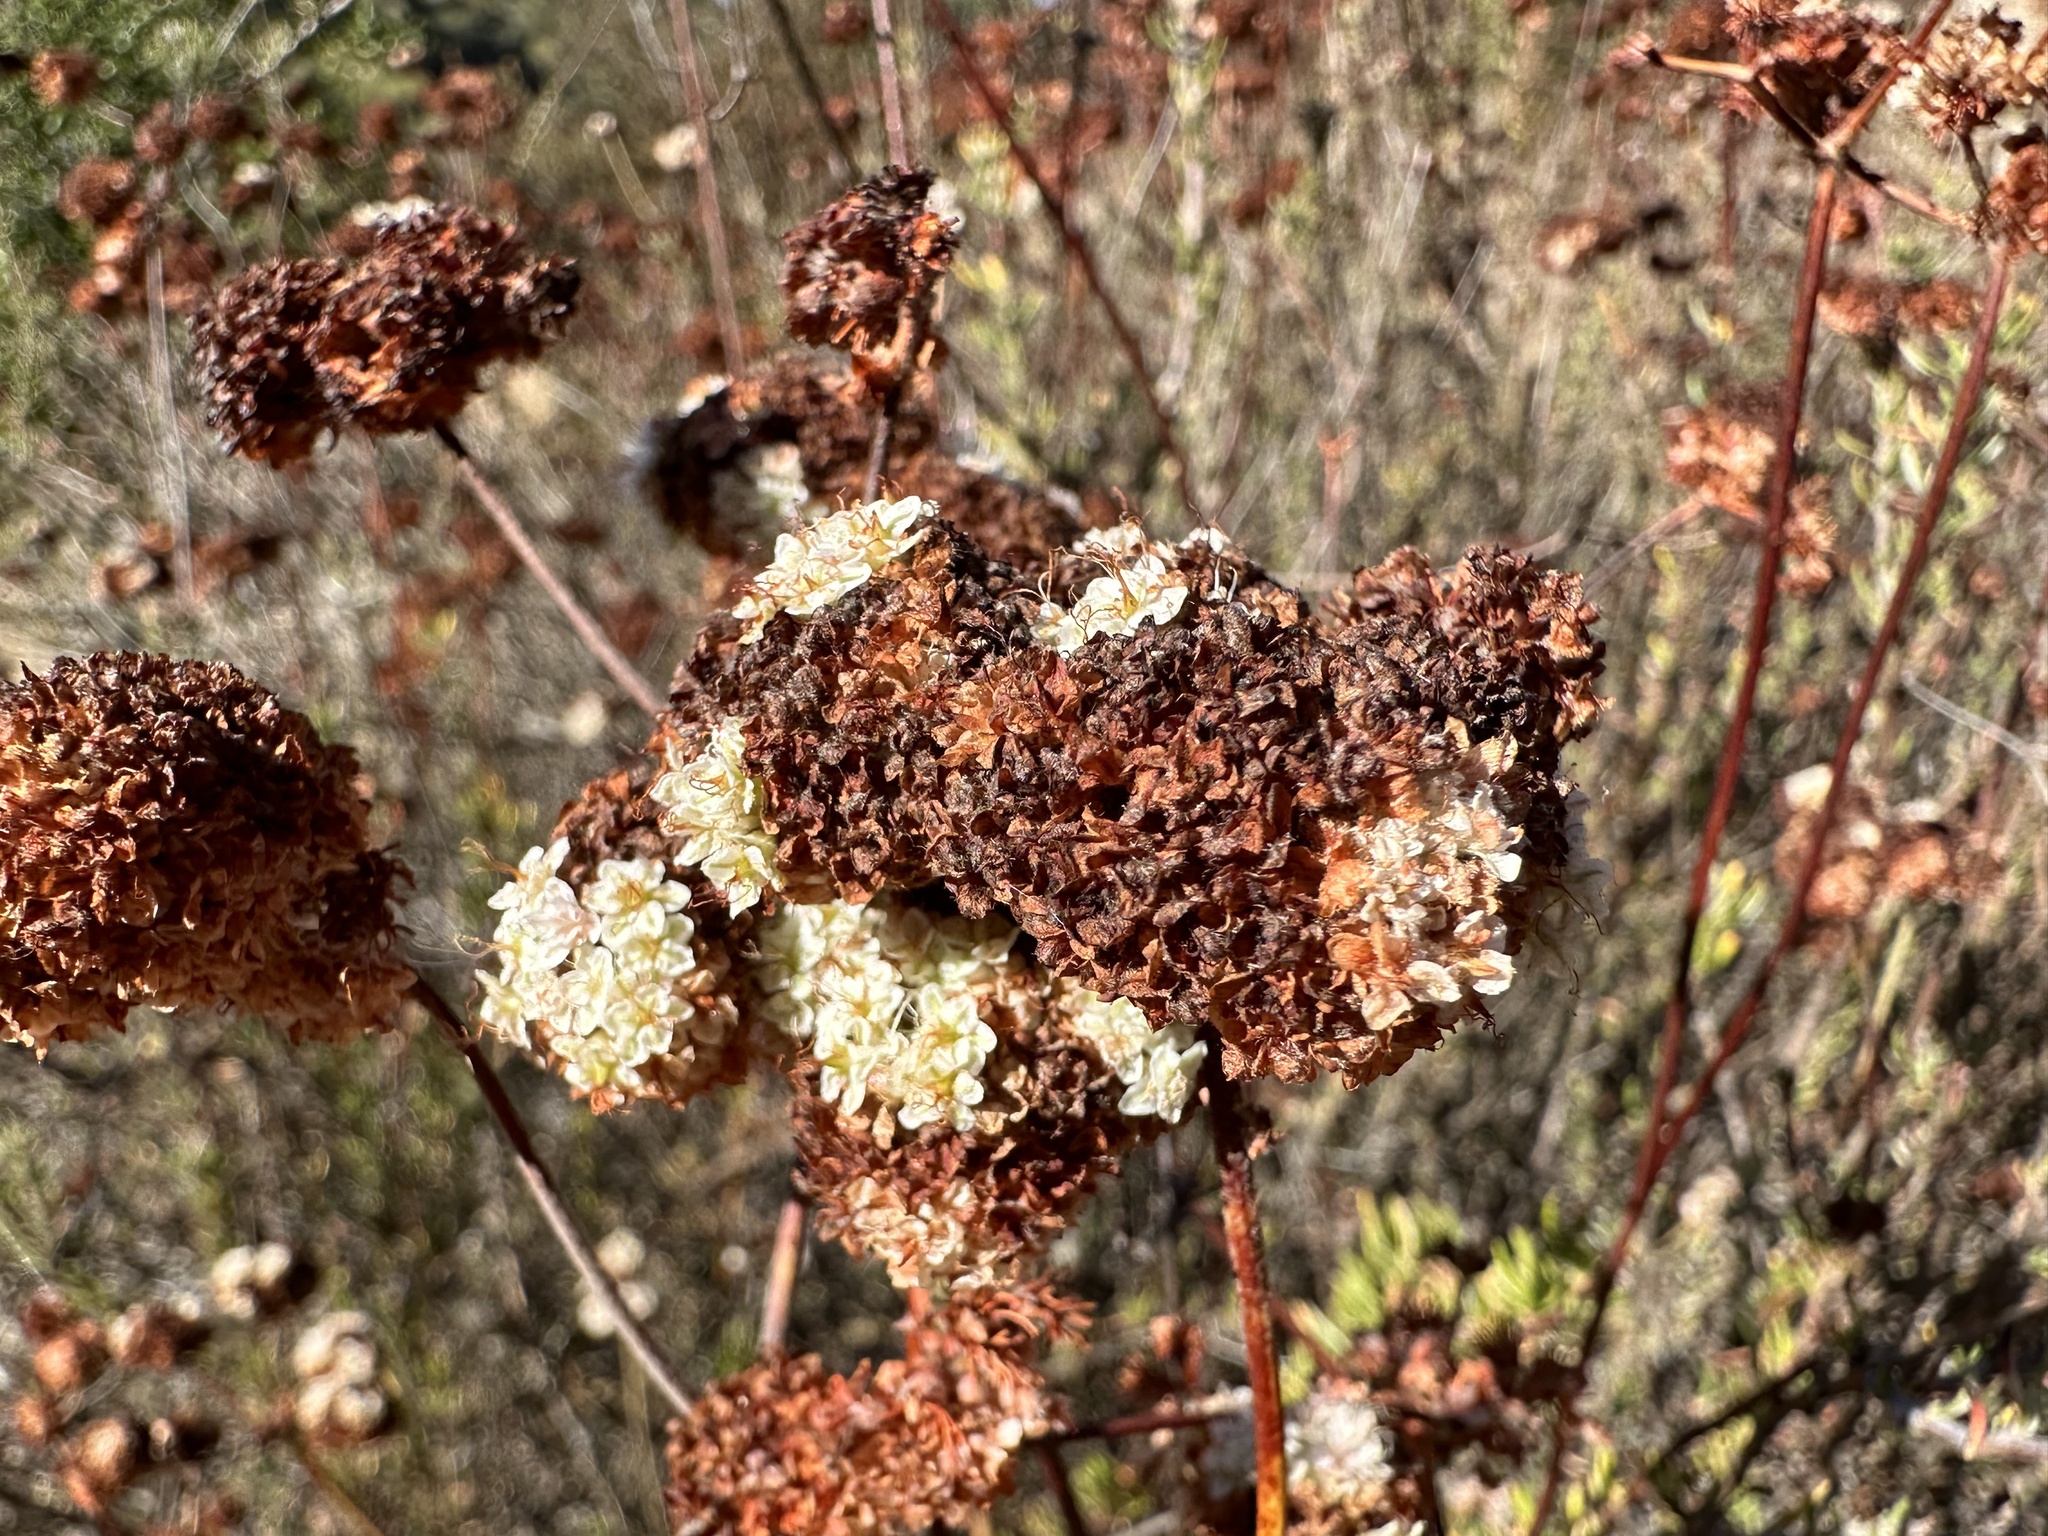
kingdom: Plantae
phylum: Tracheophyta
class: Magnoliopsida
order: Caryophyllales
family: Polygonaceae
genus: Eriogonum
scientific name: Eriogonum fasciculatum
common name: California wild buckwheat
